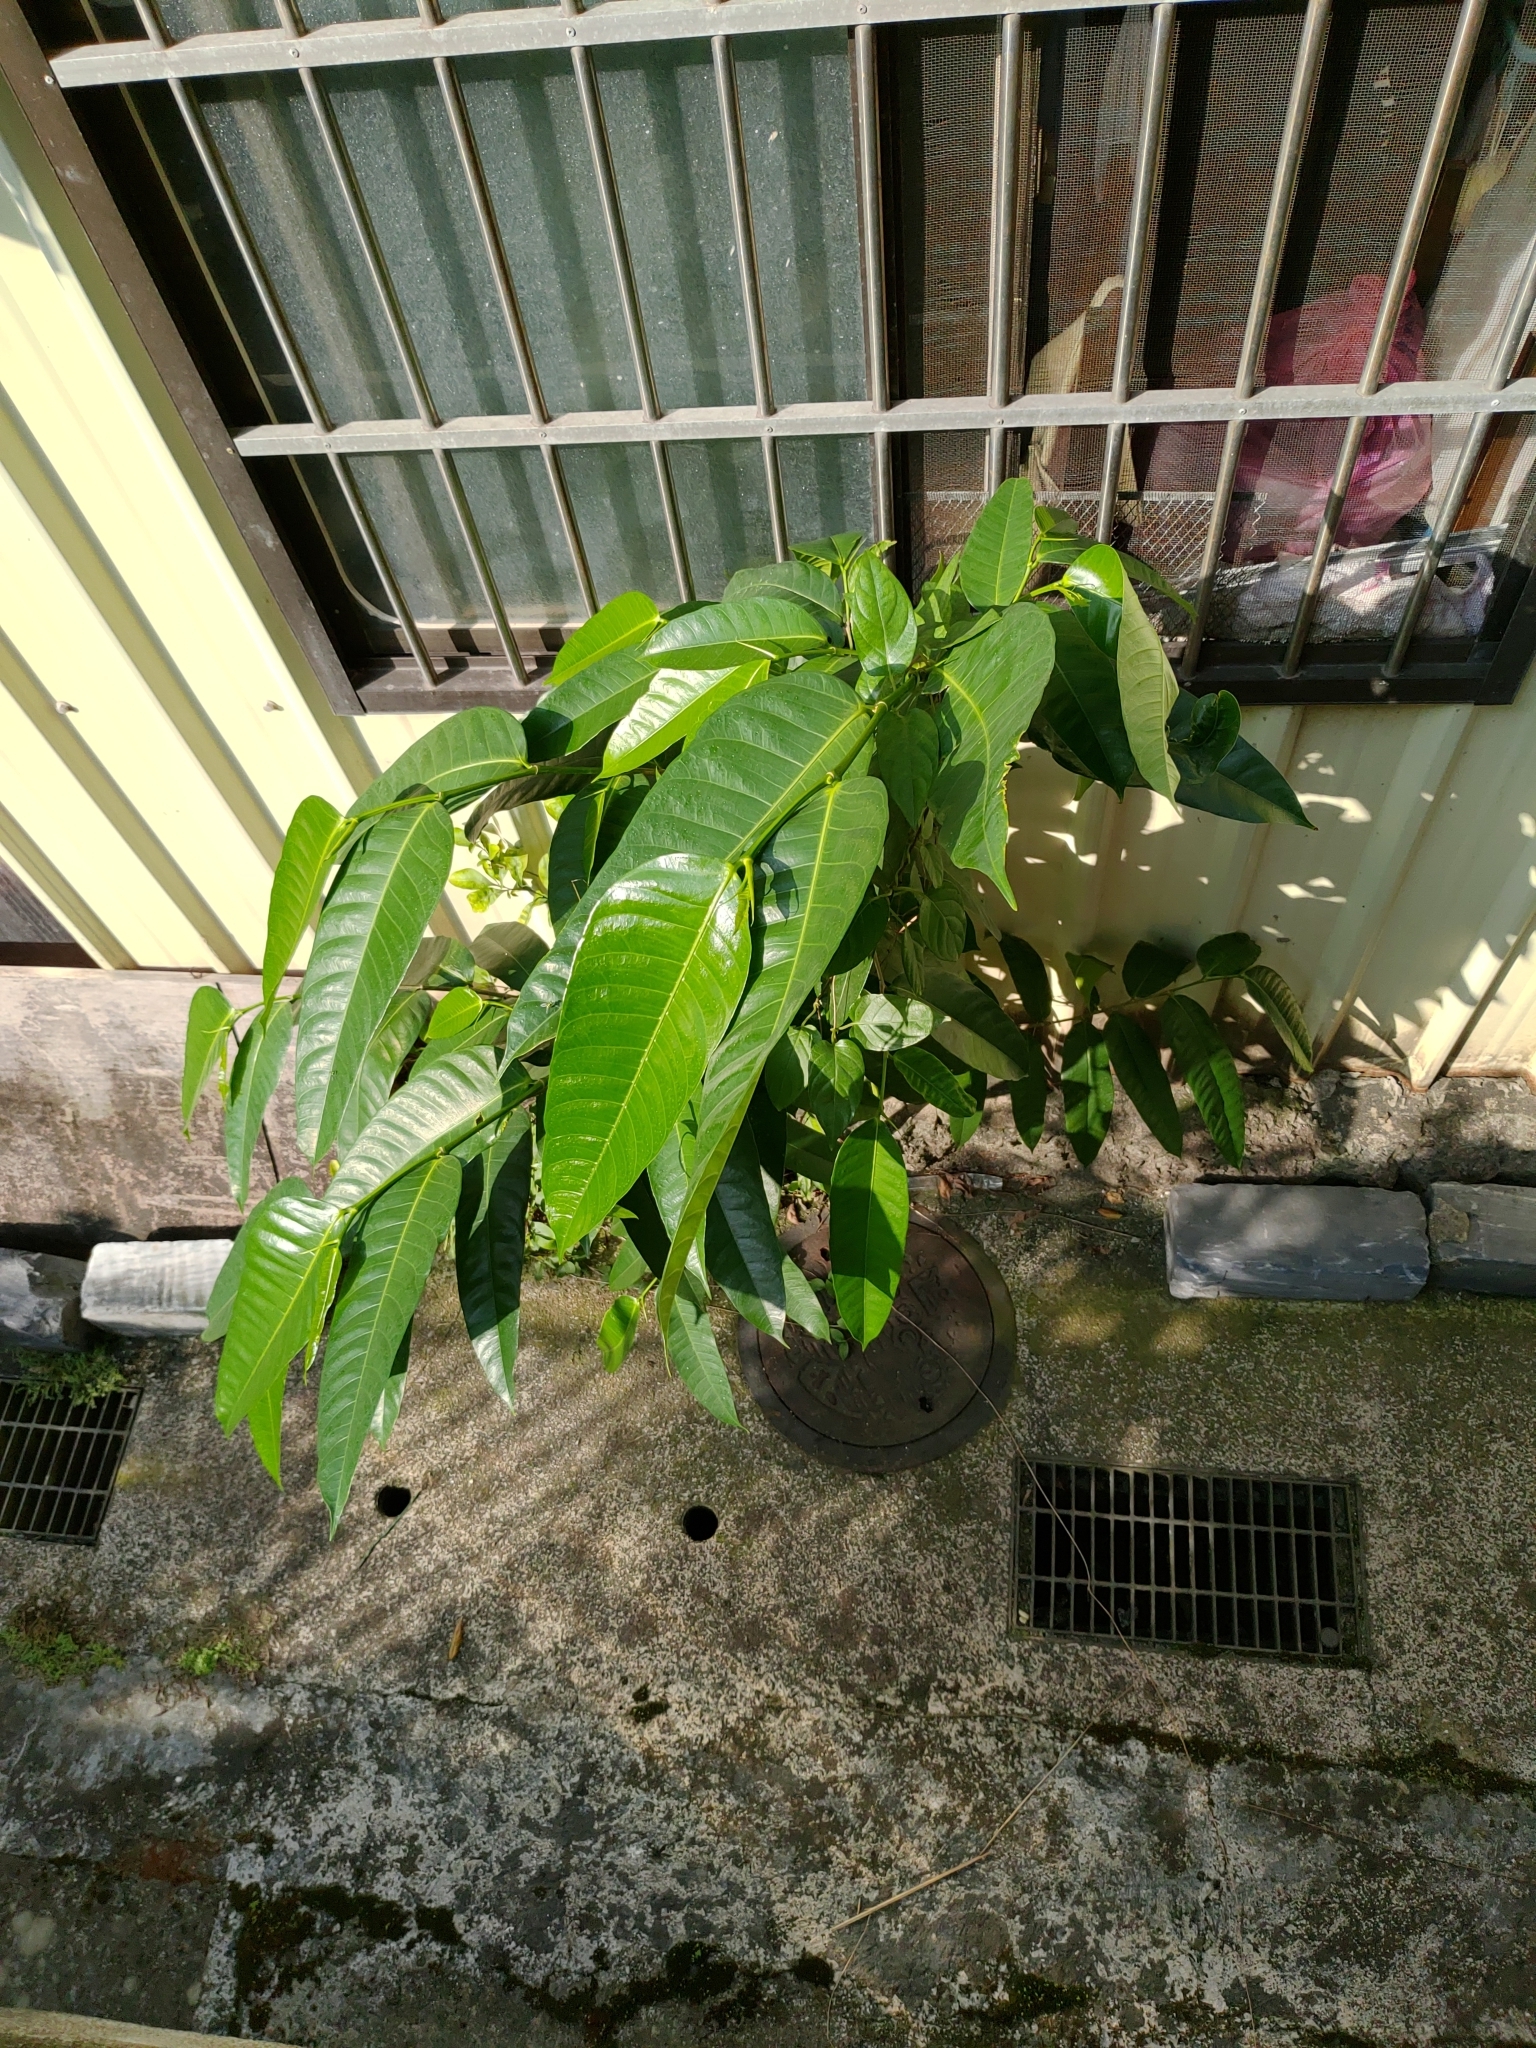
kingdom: Plantae
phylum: Tracheophyta
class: Magnoliopsida
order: Rosales
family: Moraceae
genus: Ficus
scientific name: Ficus virgata
